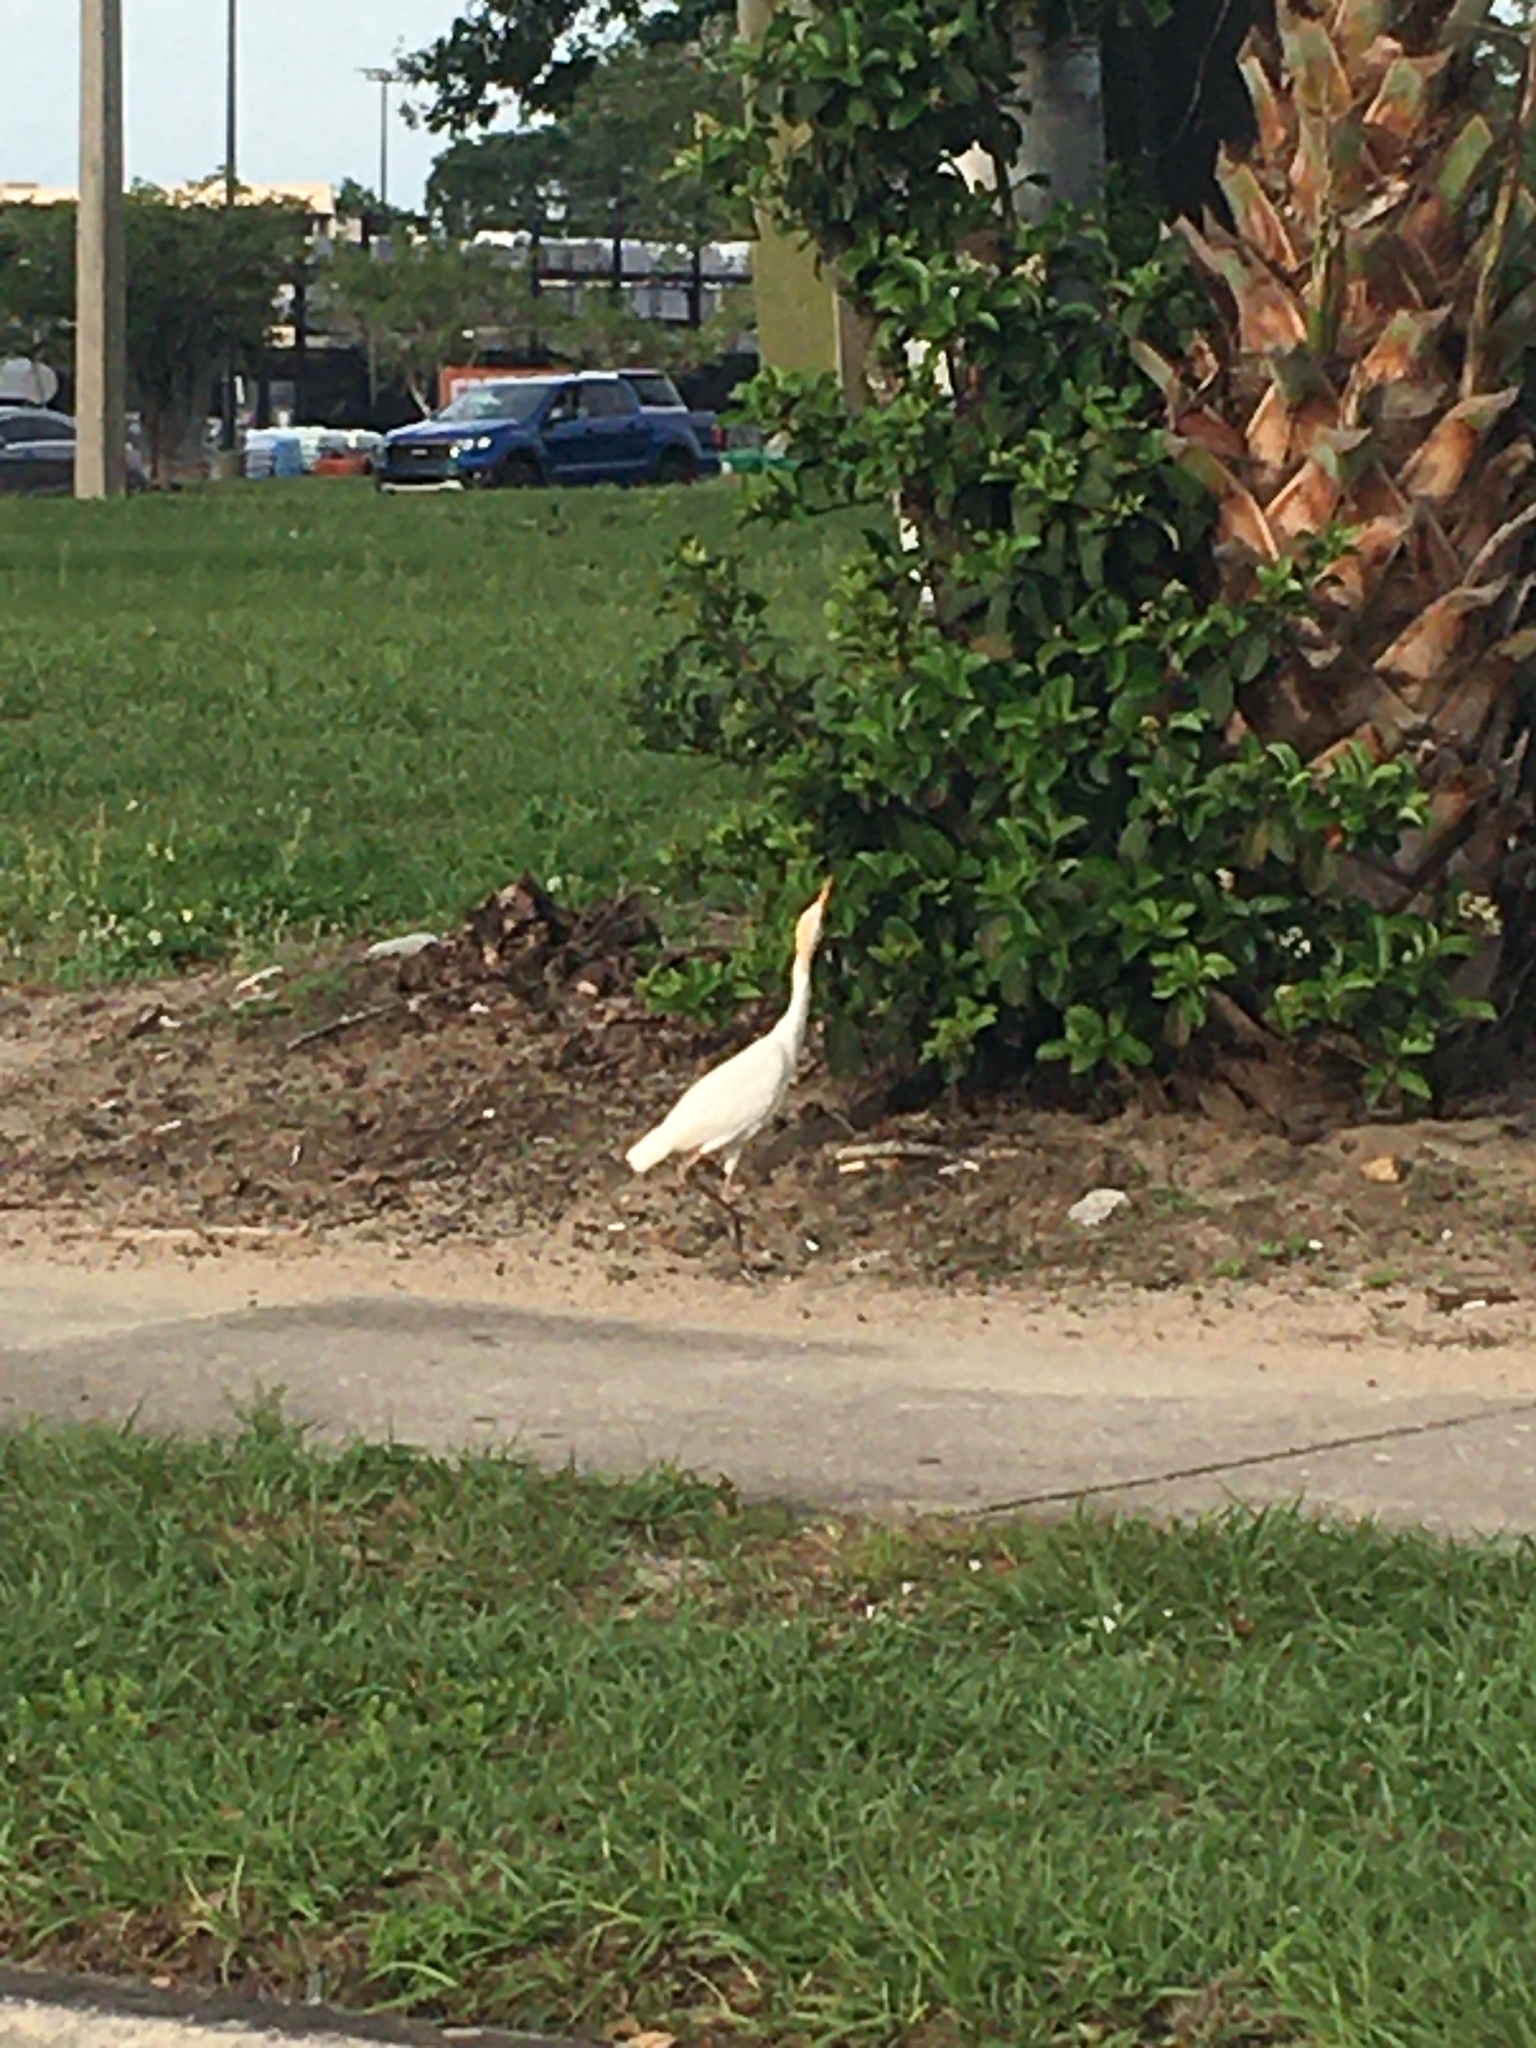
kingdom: Animalia
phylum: Chordata
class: Aves
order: Pelecaniformes
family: Ardeidae
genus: Bubulcus
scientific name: Bubulcus ibis
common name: Cattle egret
